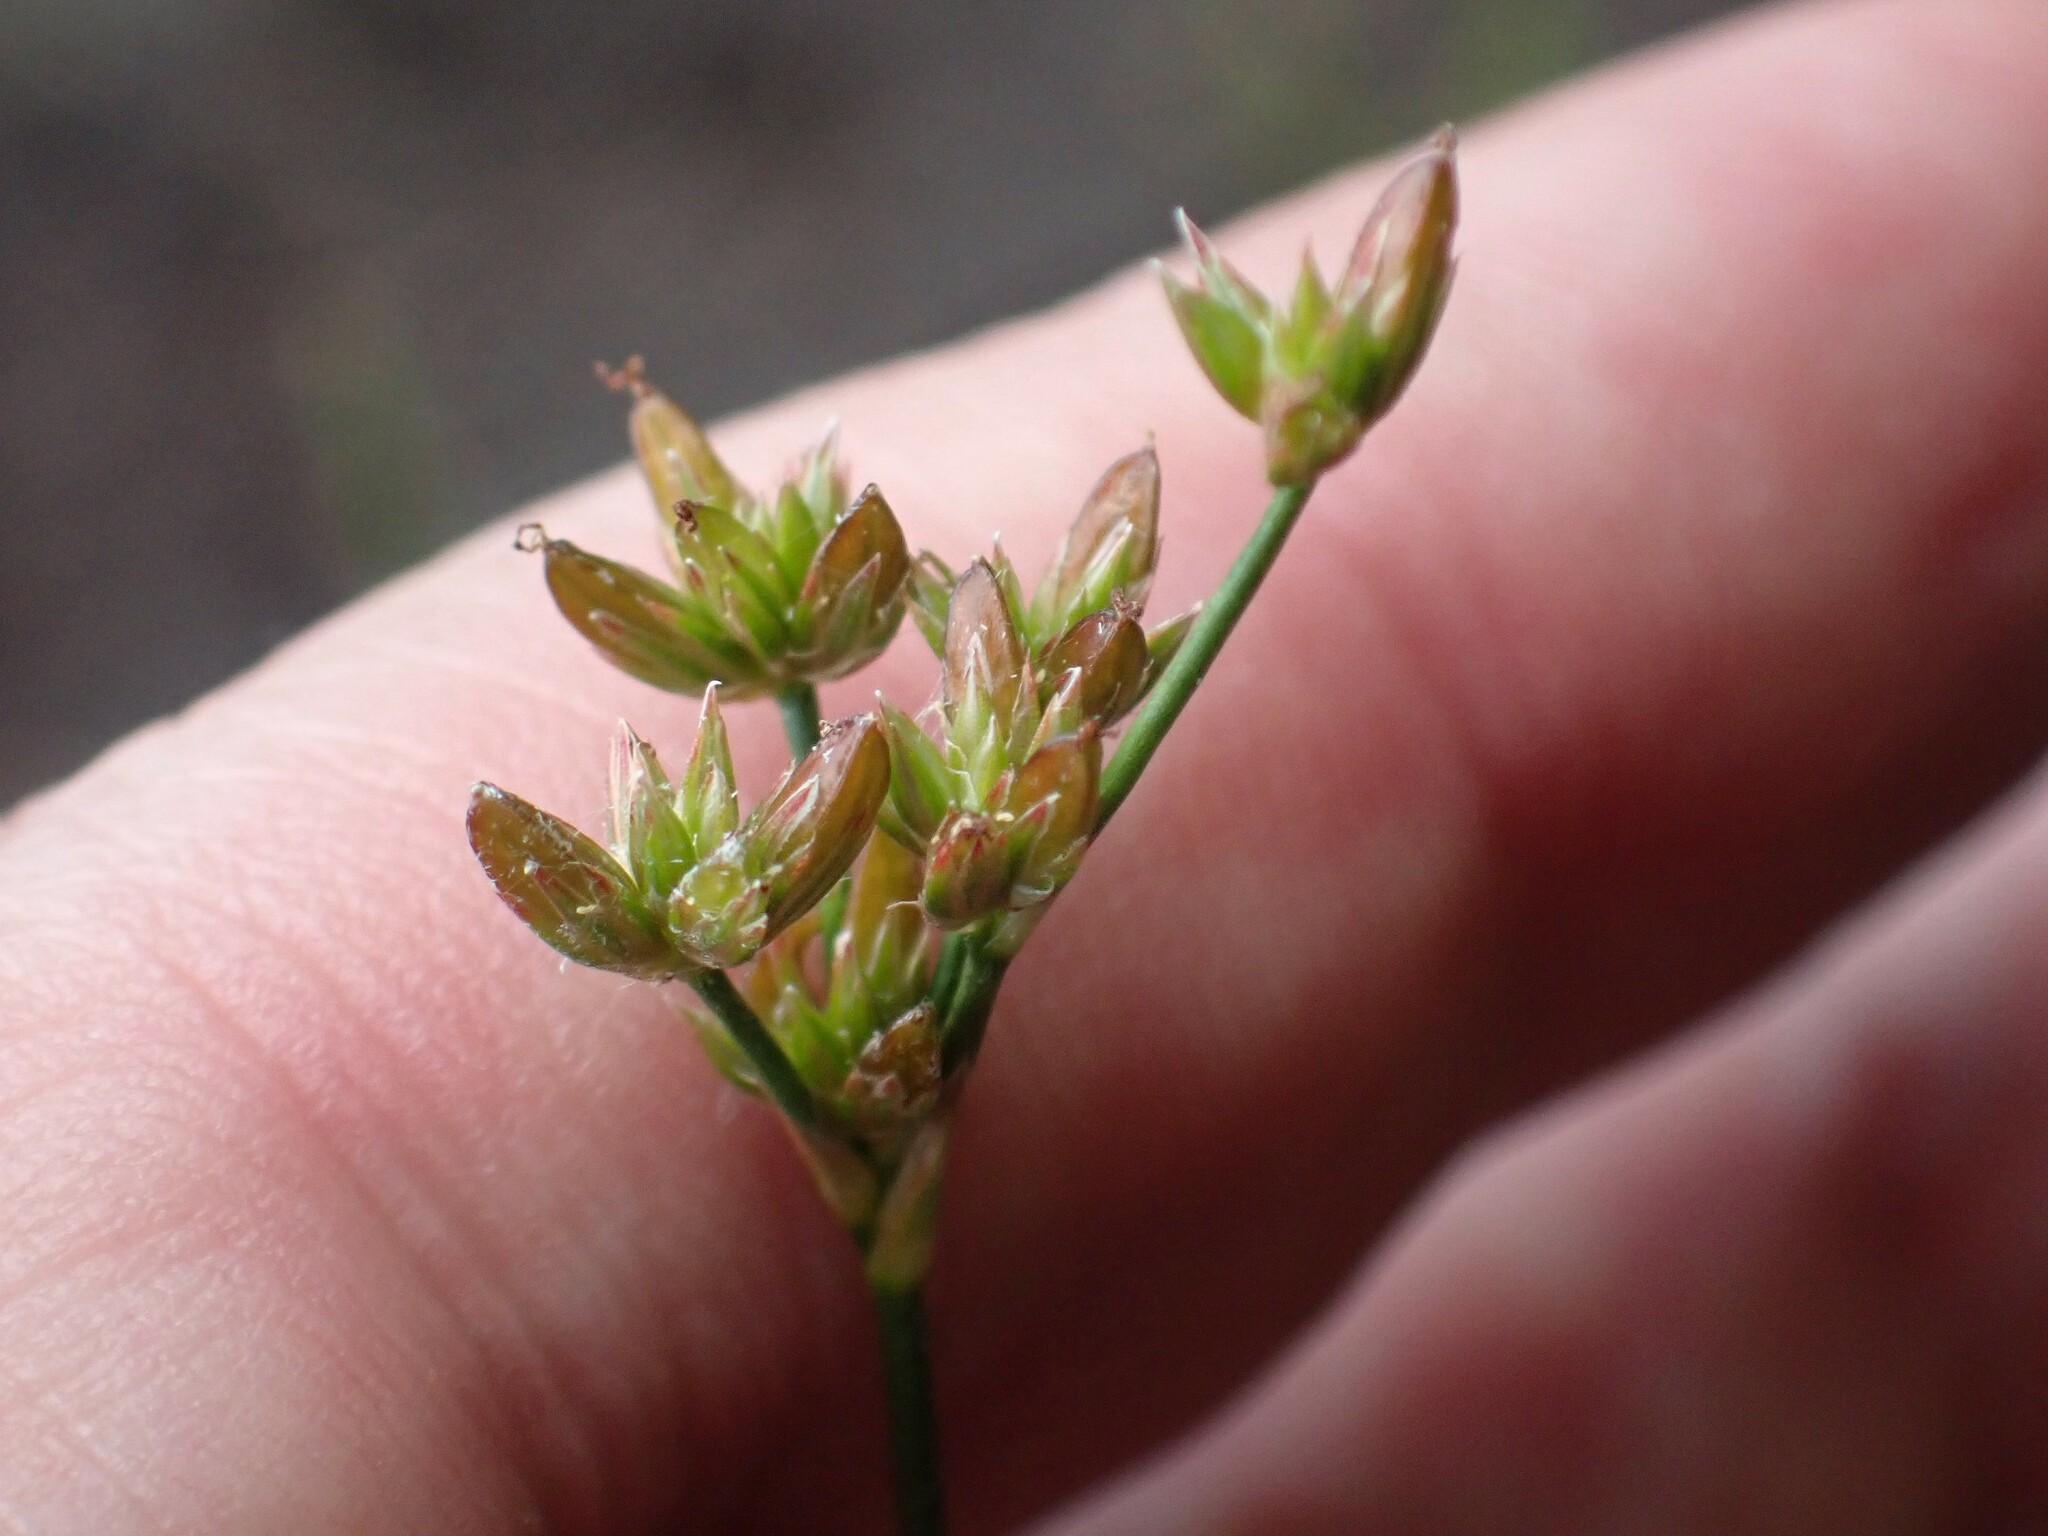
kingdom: Plantae
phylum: Tracheophyta
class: Liliopsida
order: Poales
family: Juncaceae
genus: Juncus
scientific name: Juncus tweedyi
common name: Narrow-panicled rush
